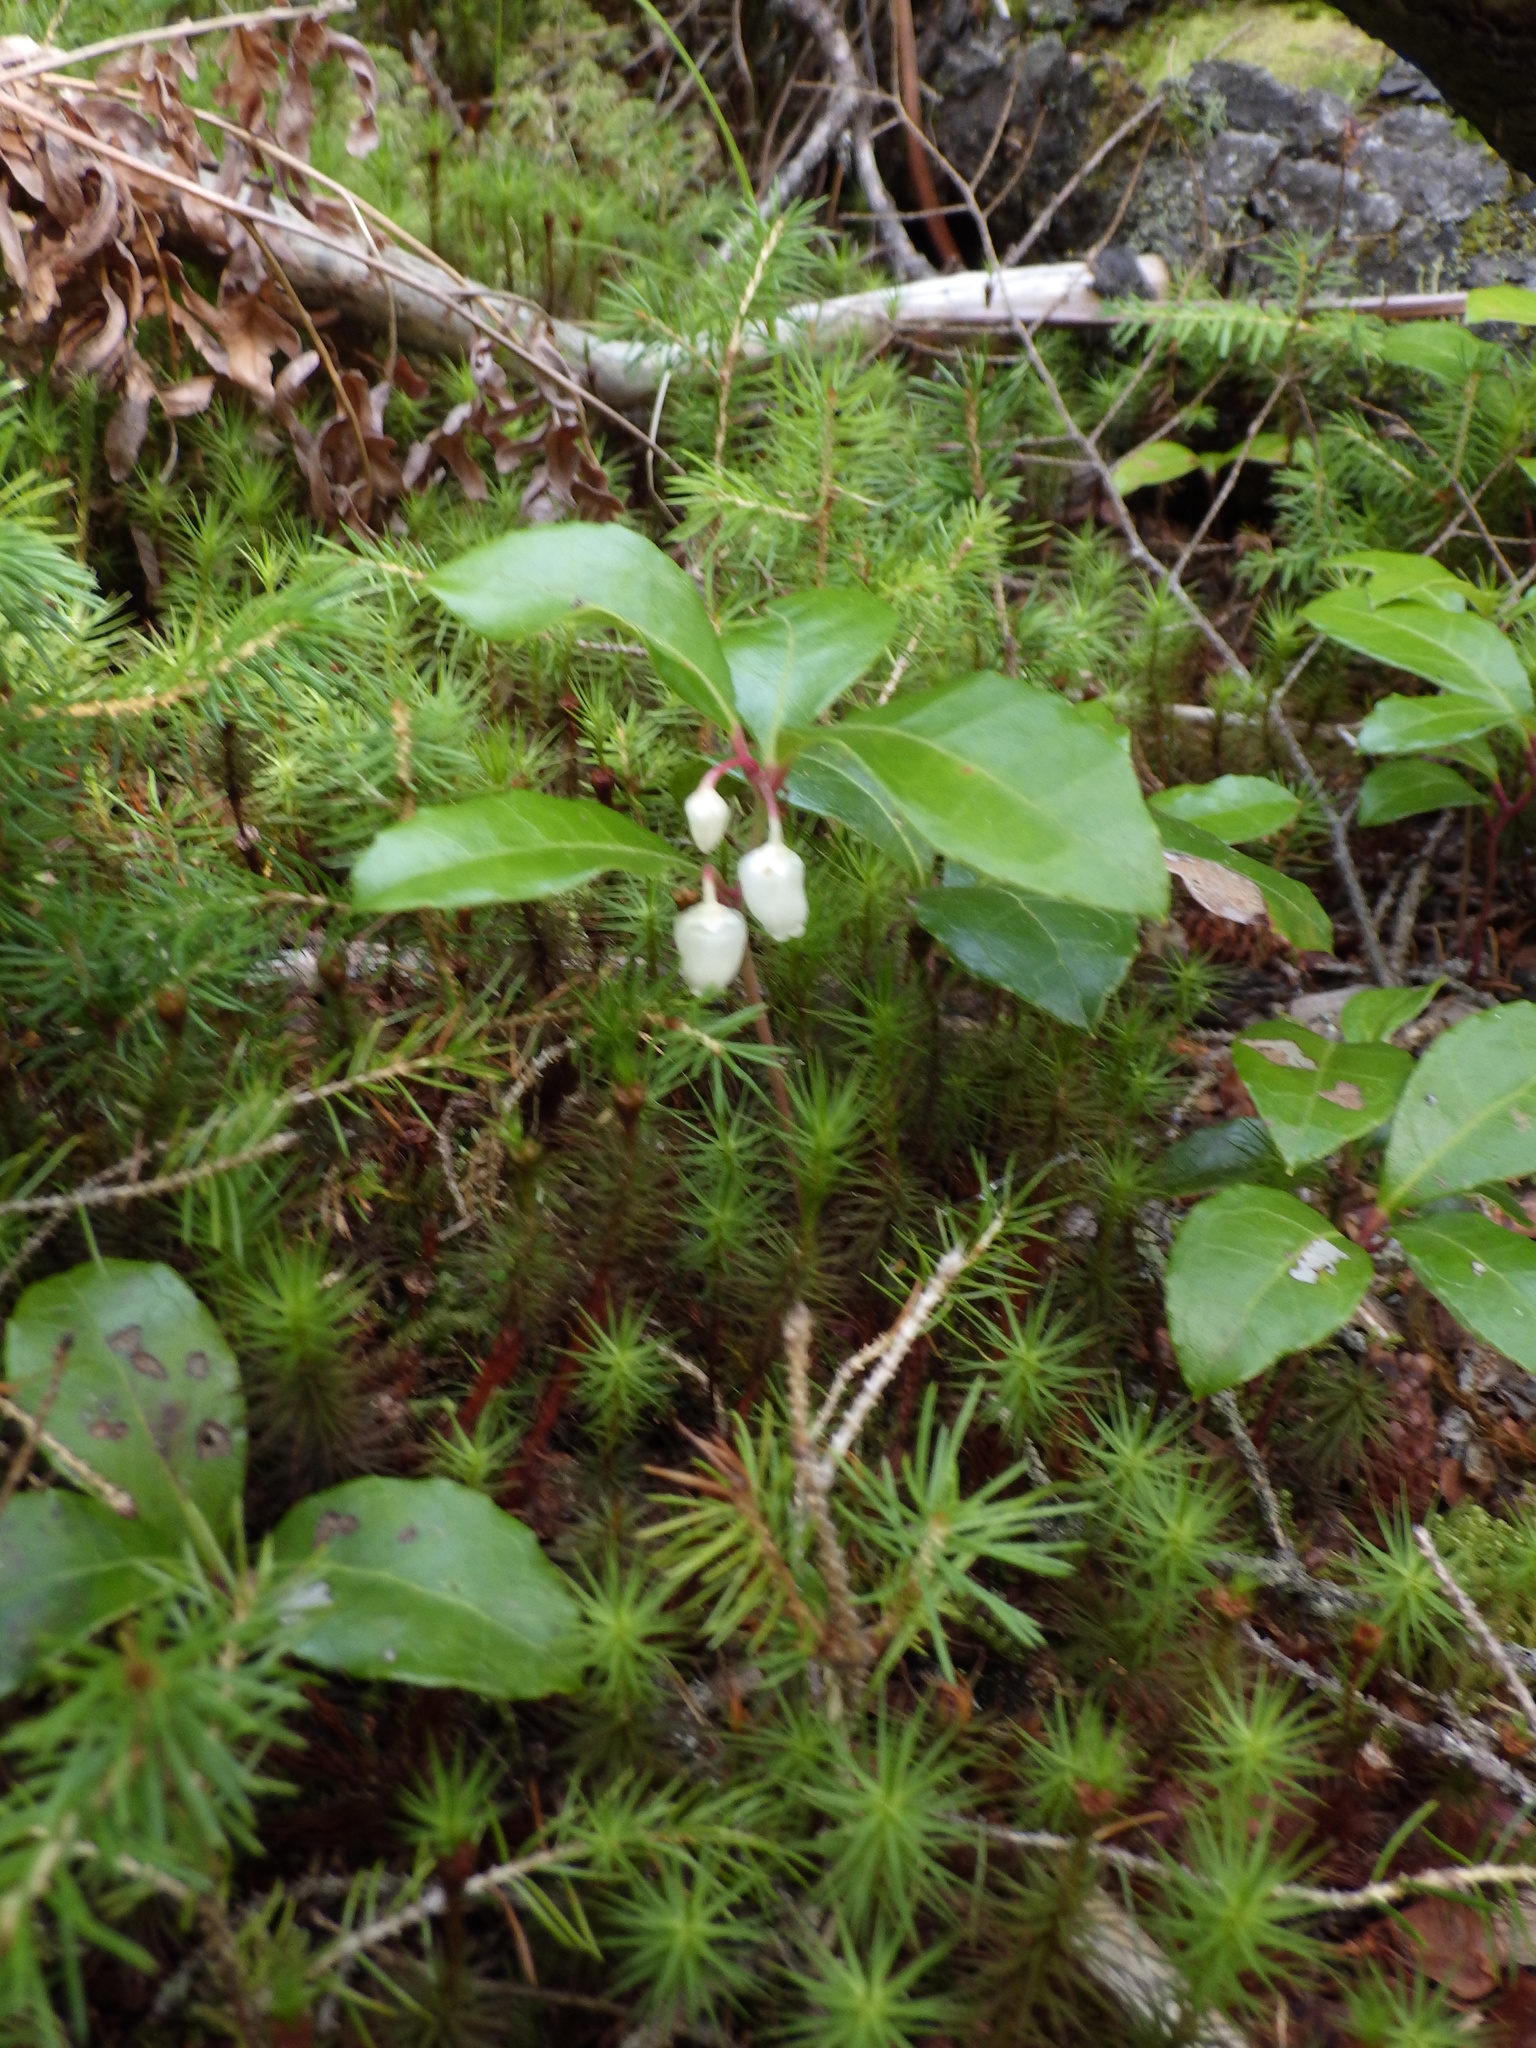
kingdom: Plantae
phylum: Tracheophyta
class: Magnoliopsida
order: Ericales
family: Ericaceae
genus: Gaultheria
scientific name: Gaultheria procumbens
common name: Checkerberry
